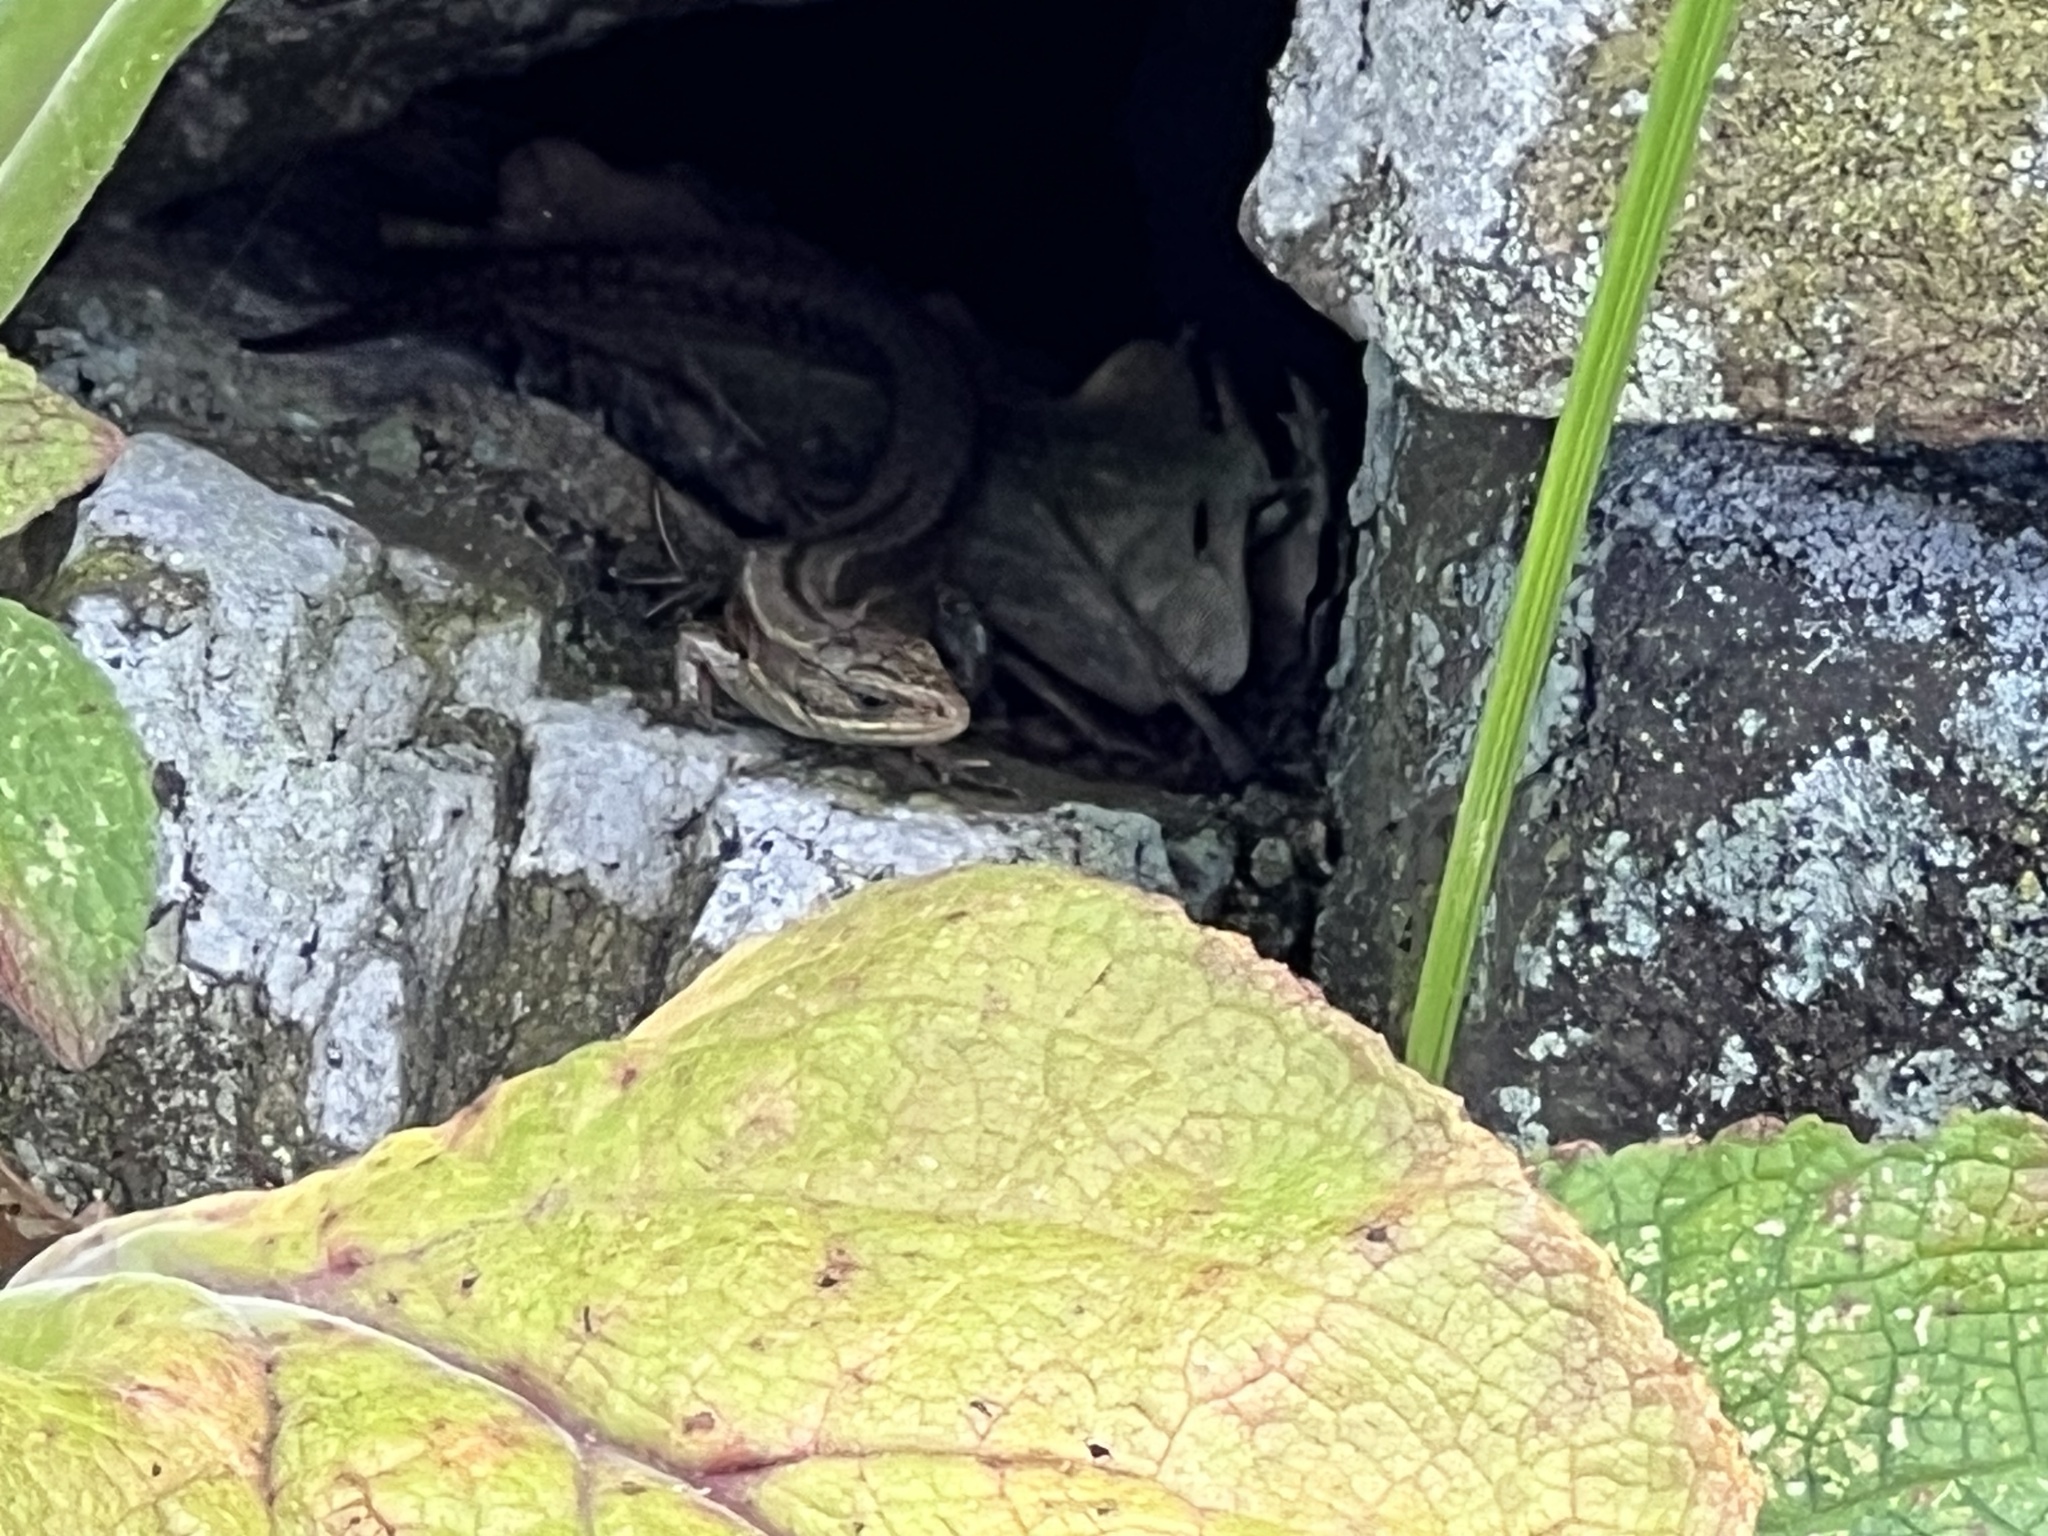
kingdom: Animalia
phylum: Chordata
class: Squamata
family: Lacertidae
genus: Zootoca
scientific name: Zootoca vivipara
